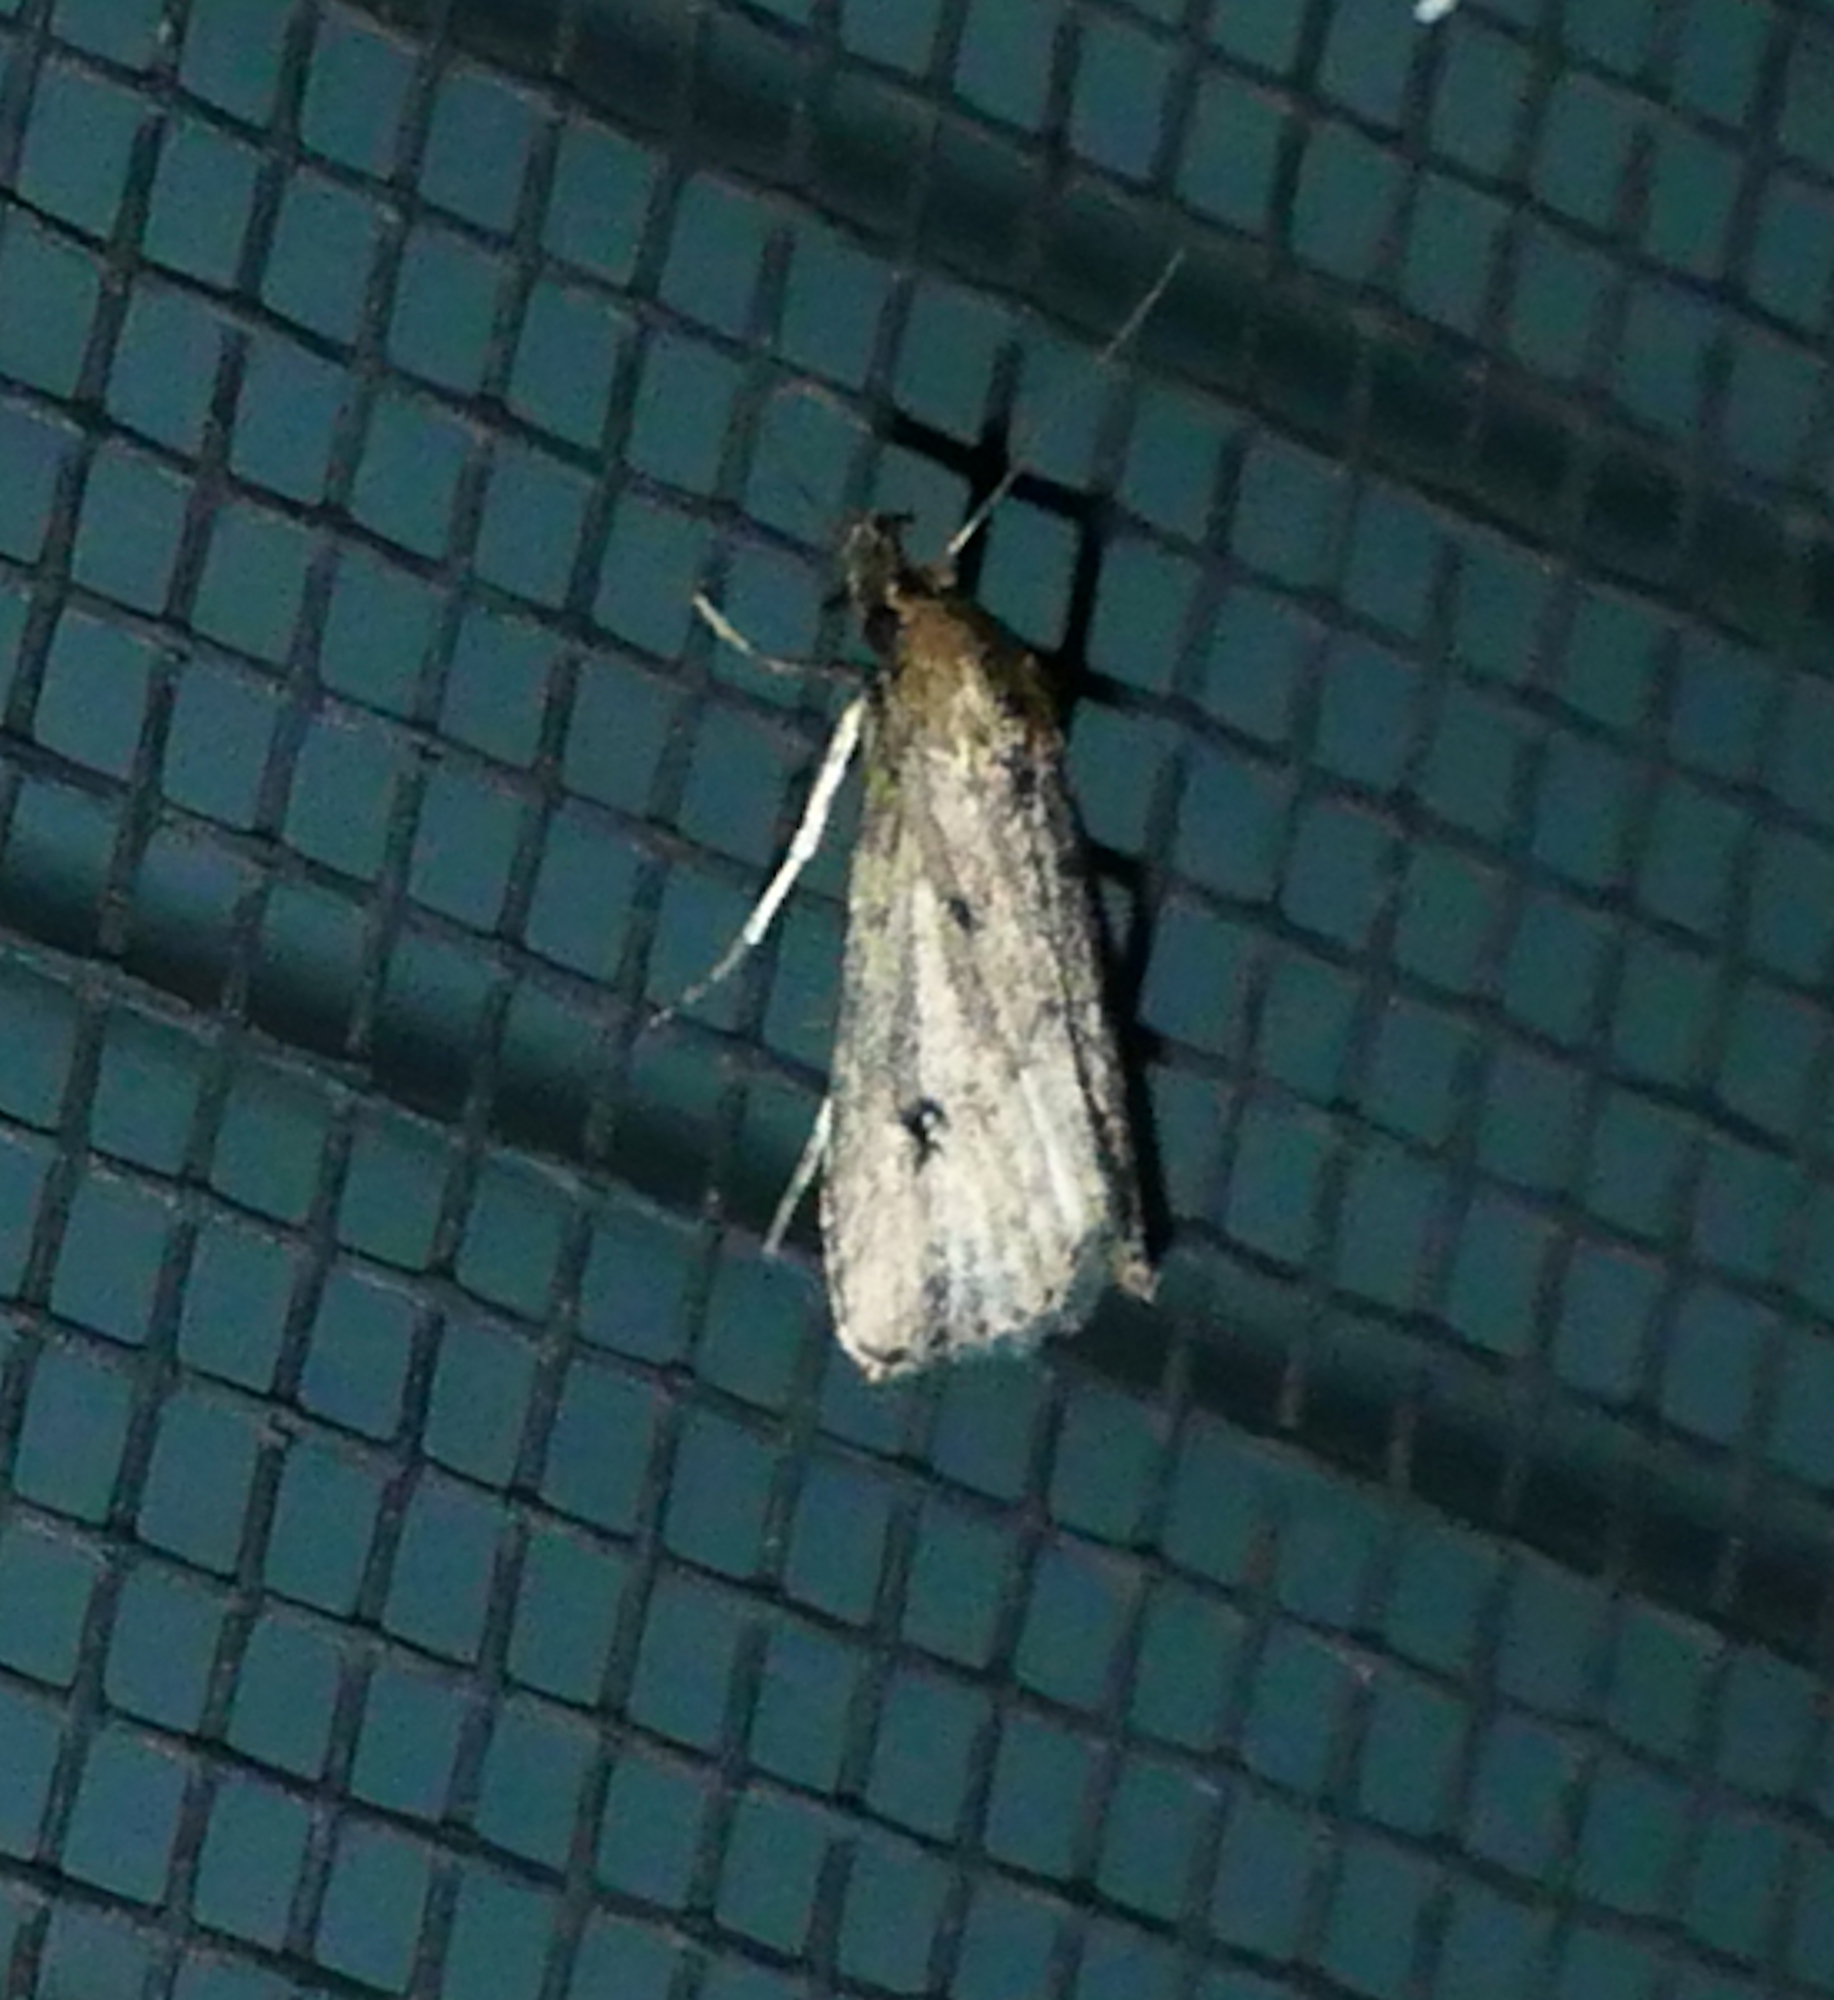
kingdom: Animalia
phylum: Arthropoda
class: Insecta
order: Lepidoptera
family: Erebidae
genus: Schrankia
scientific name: Schrankia
